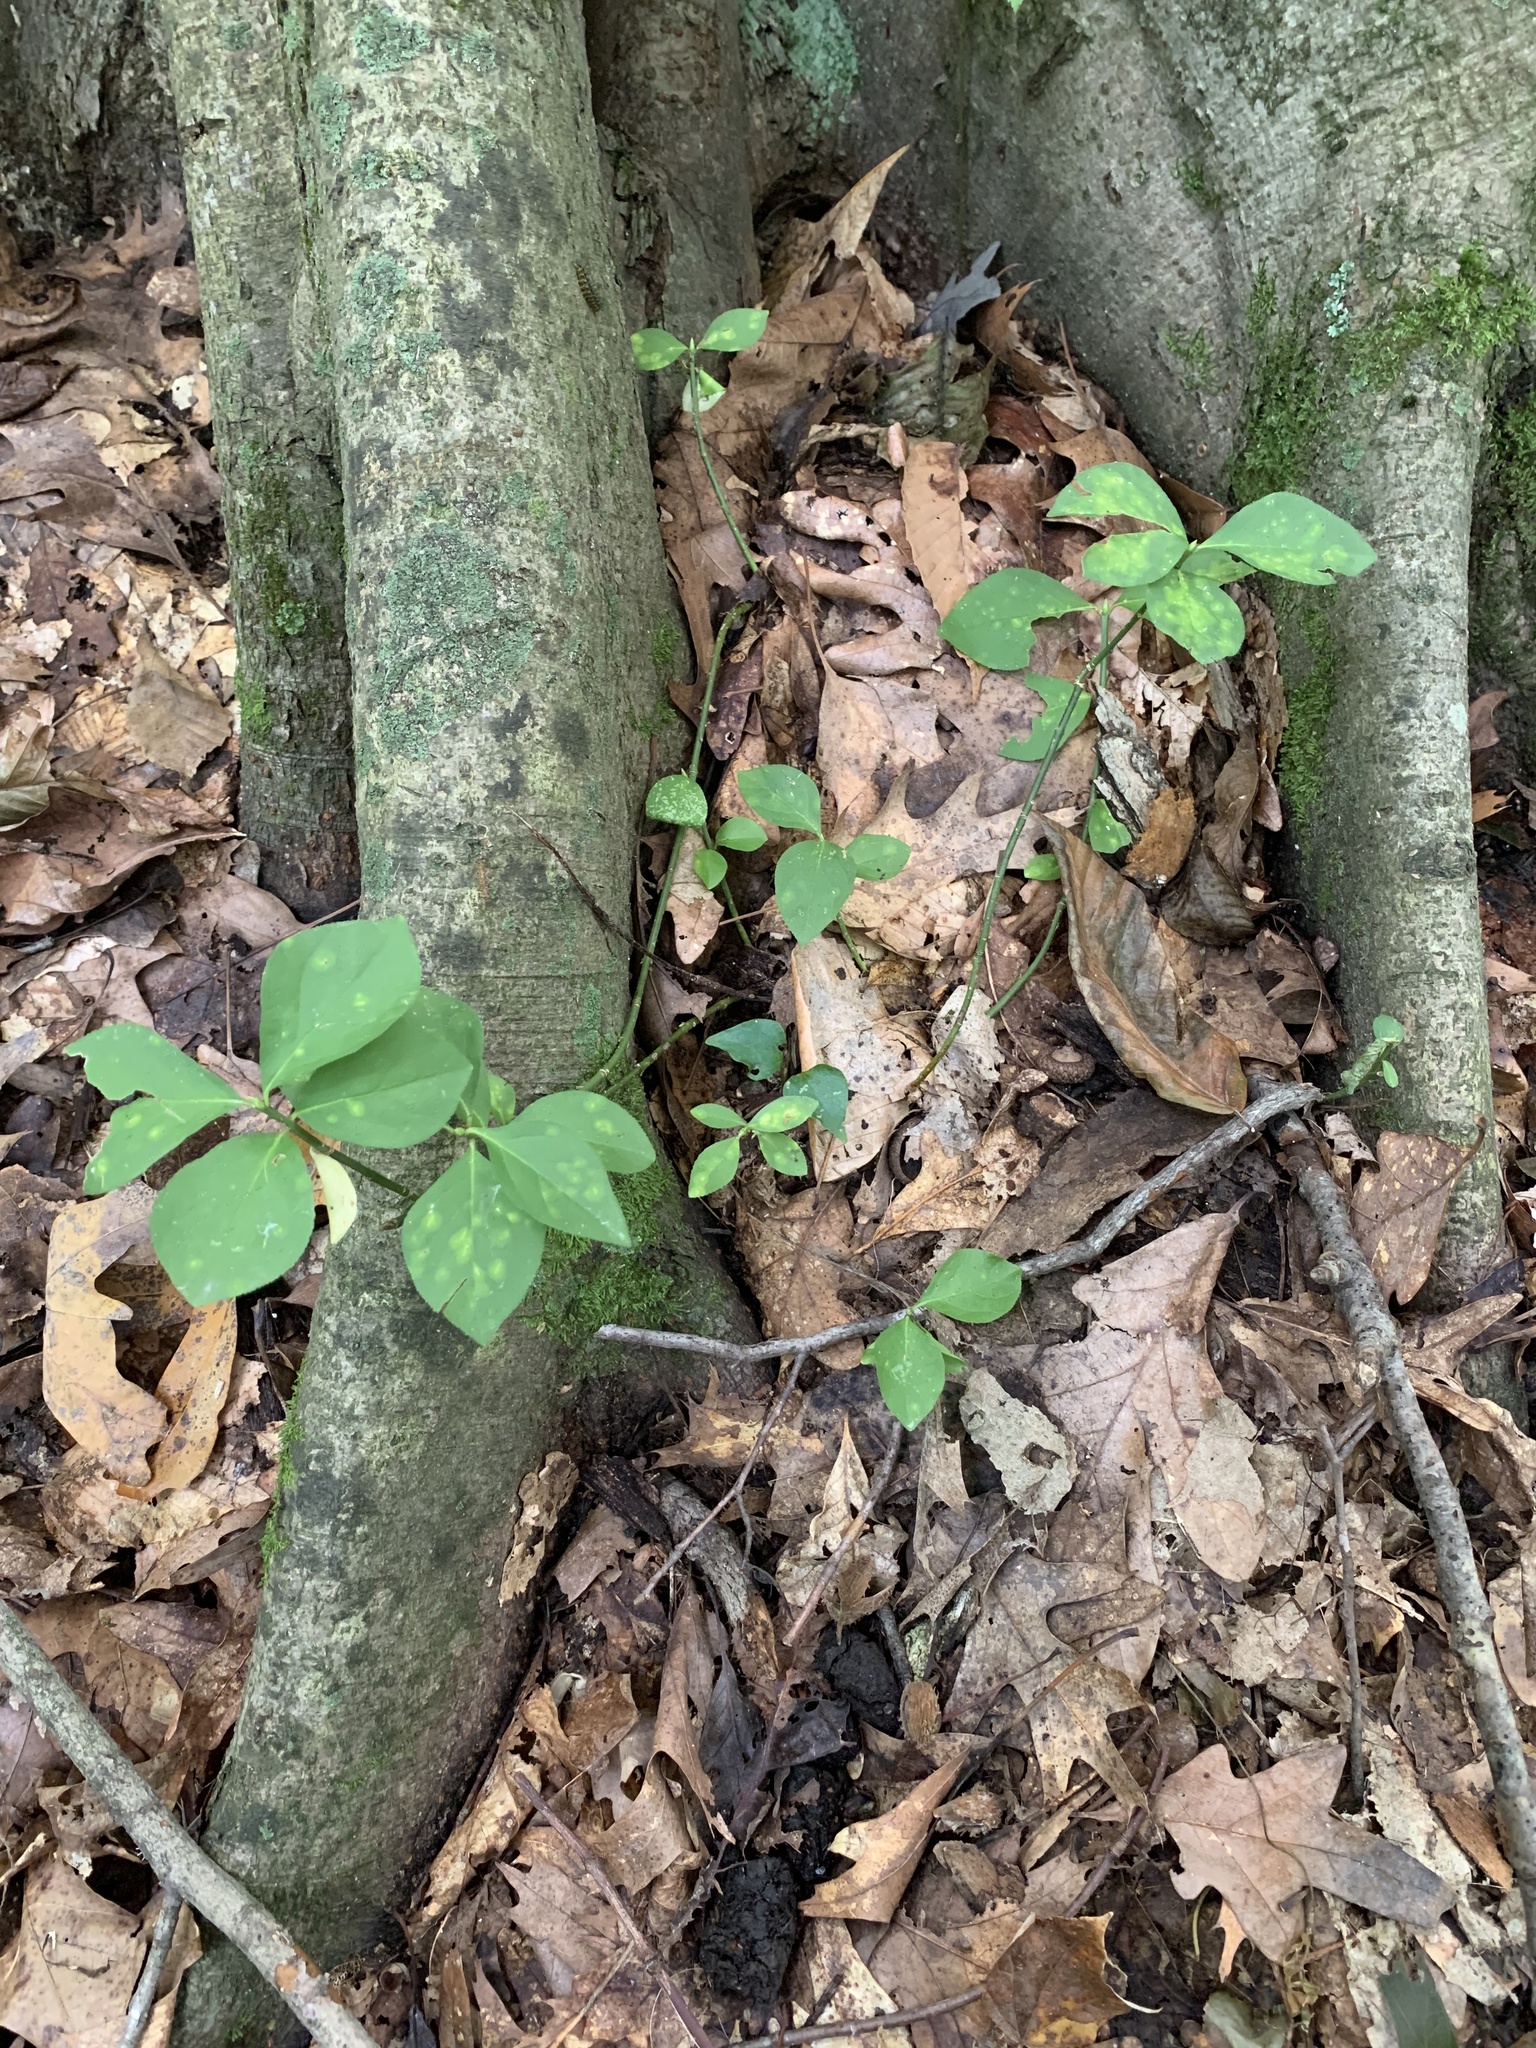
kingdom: Plantae
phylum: Tracheophyta
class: Magnoliopsida
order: Celastrales
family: Celastraceae
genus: Euonymus
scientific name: Euonymus obovatus
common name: Running strawberry-bush
